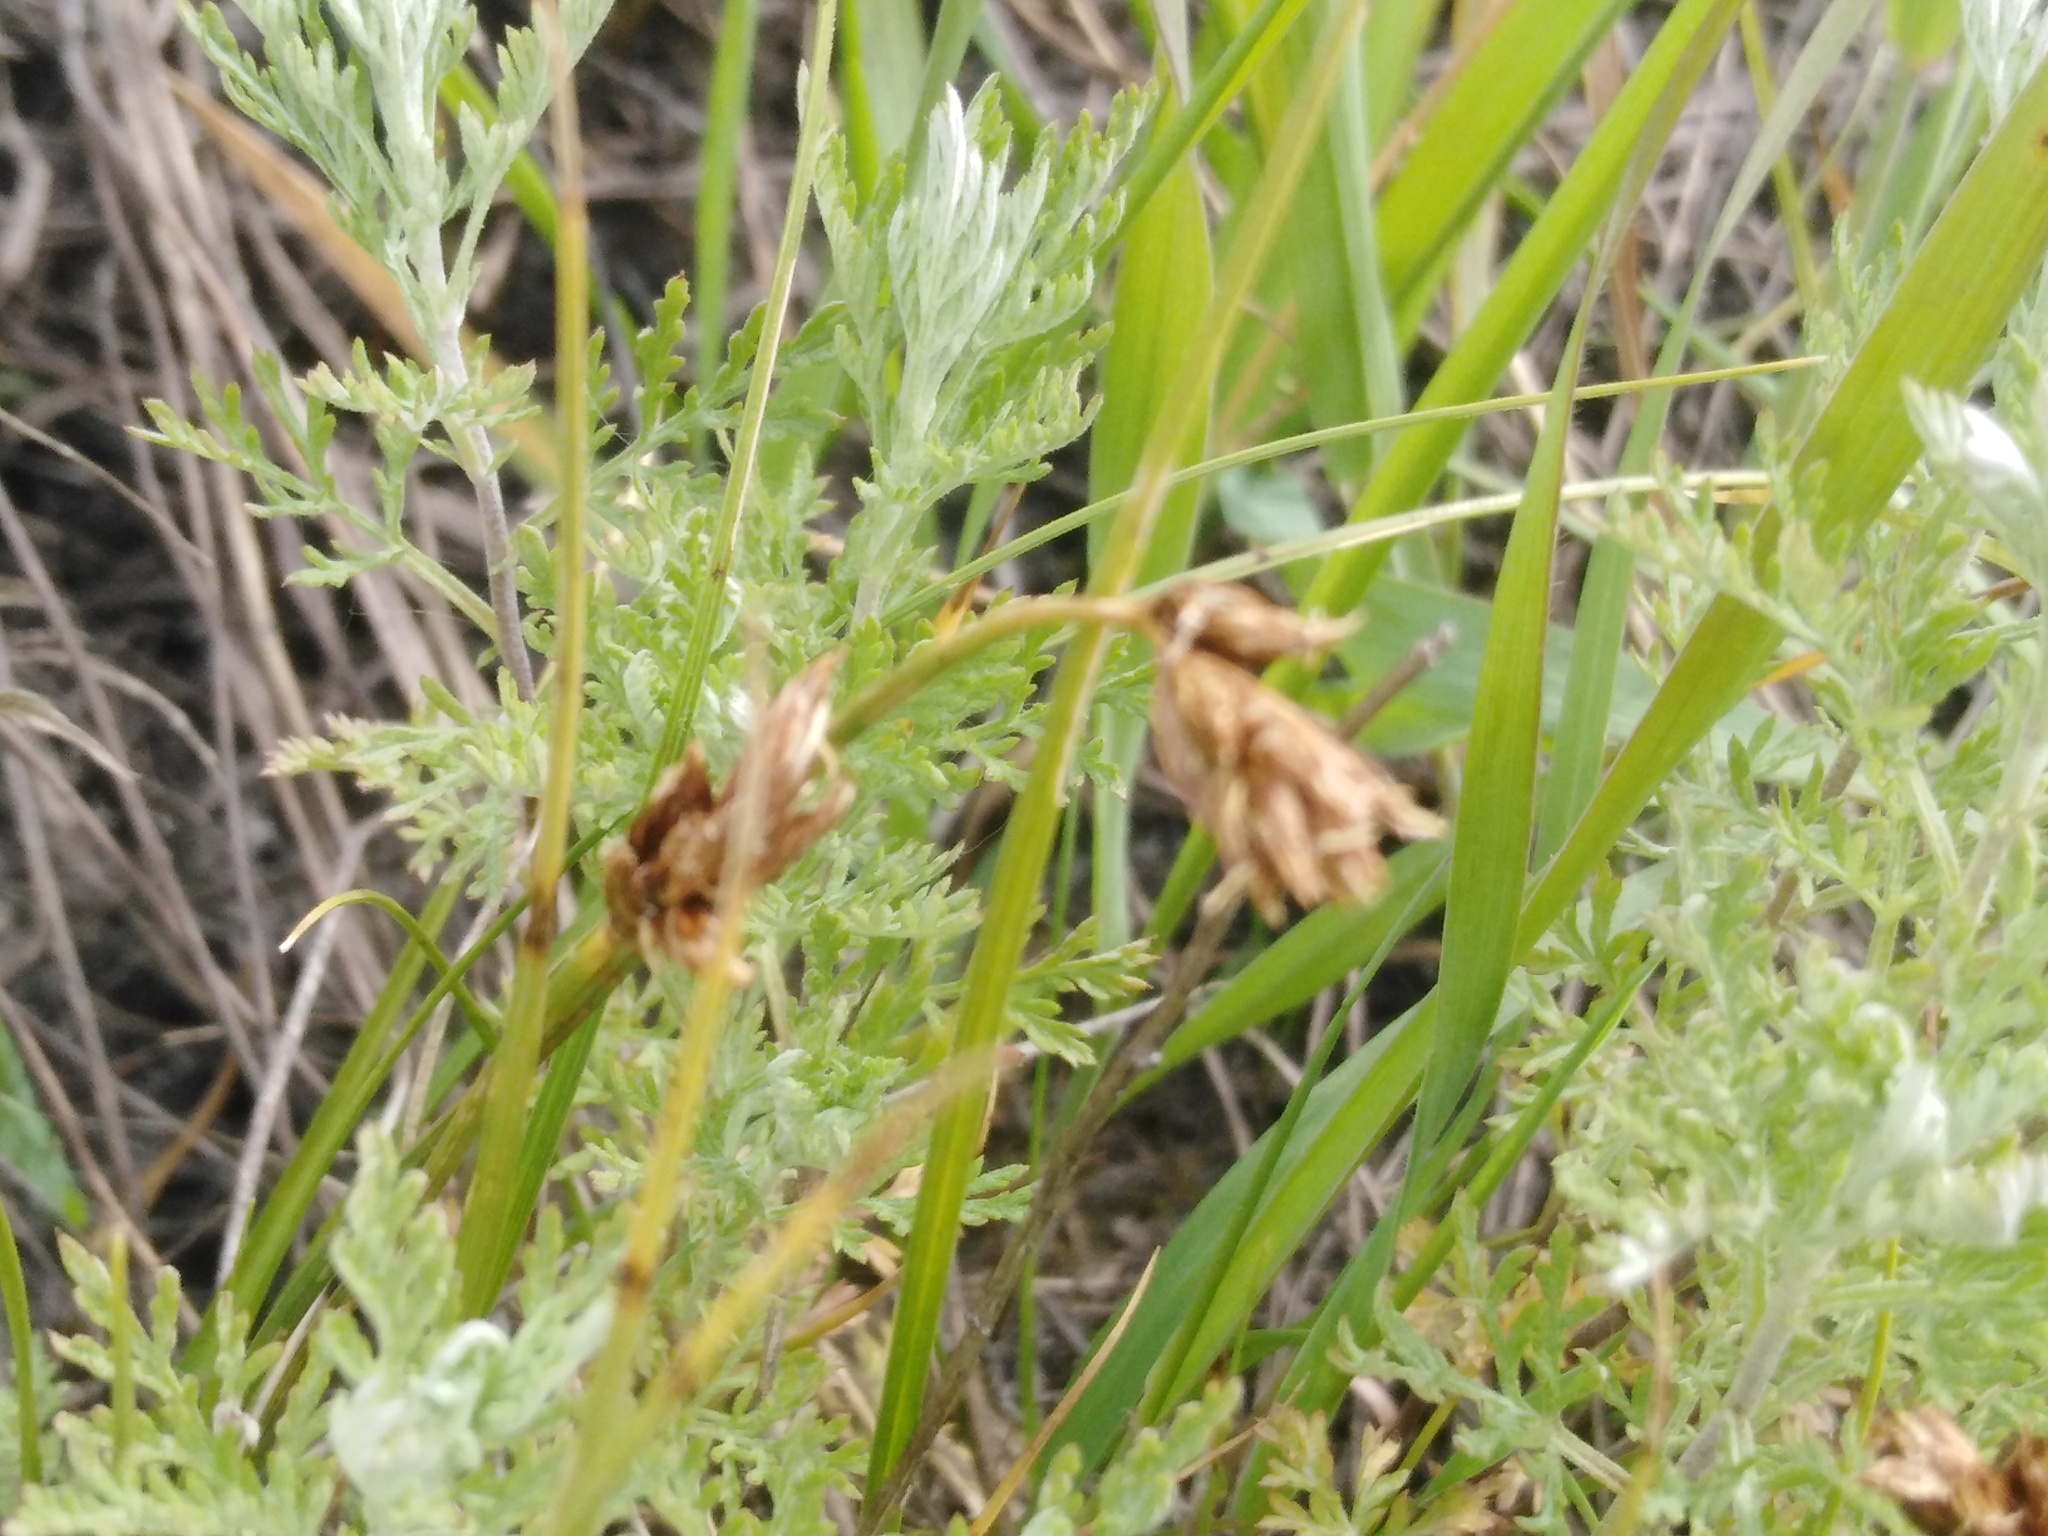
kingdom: Plantae
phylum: Tracheophyta
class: Liliopsida
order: Poales
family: Cyperaceae
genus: Carex
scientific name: Carex stenophylla
